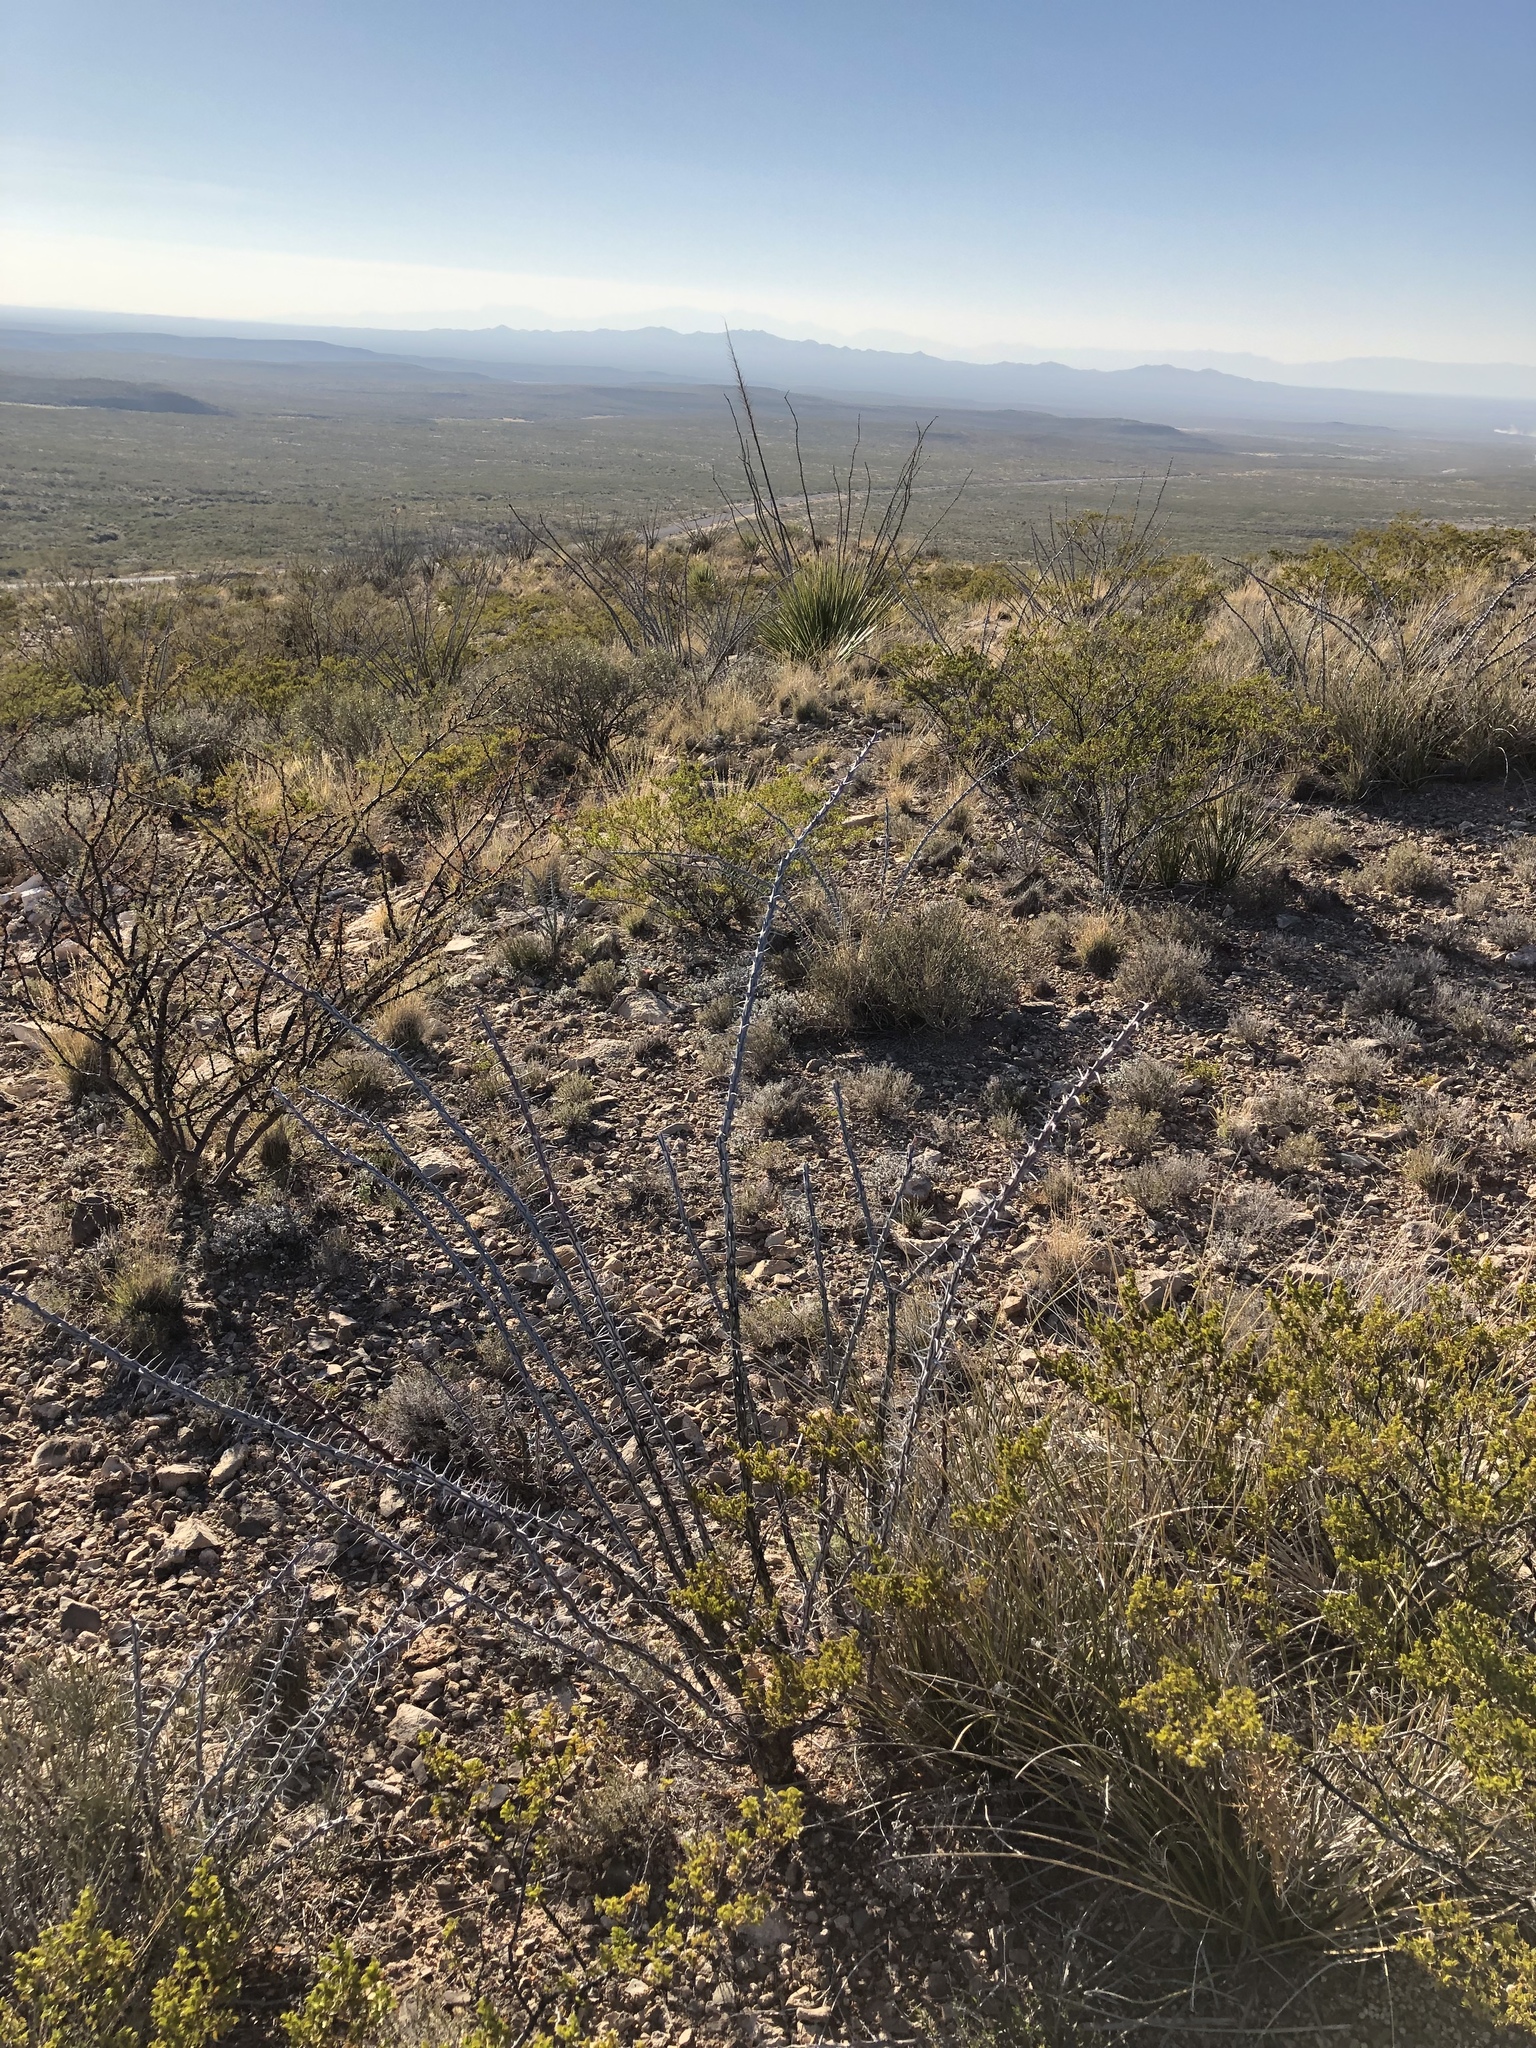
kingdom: Plantae
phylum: Tracheophyta
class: Magnoliopsida
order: Ericales
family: Fouquieriaceae
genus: Fouquieria
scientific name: Fouquieria splendens
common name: Vine-cactus
